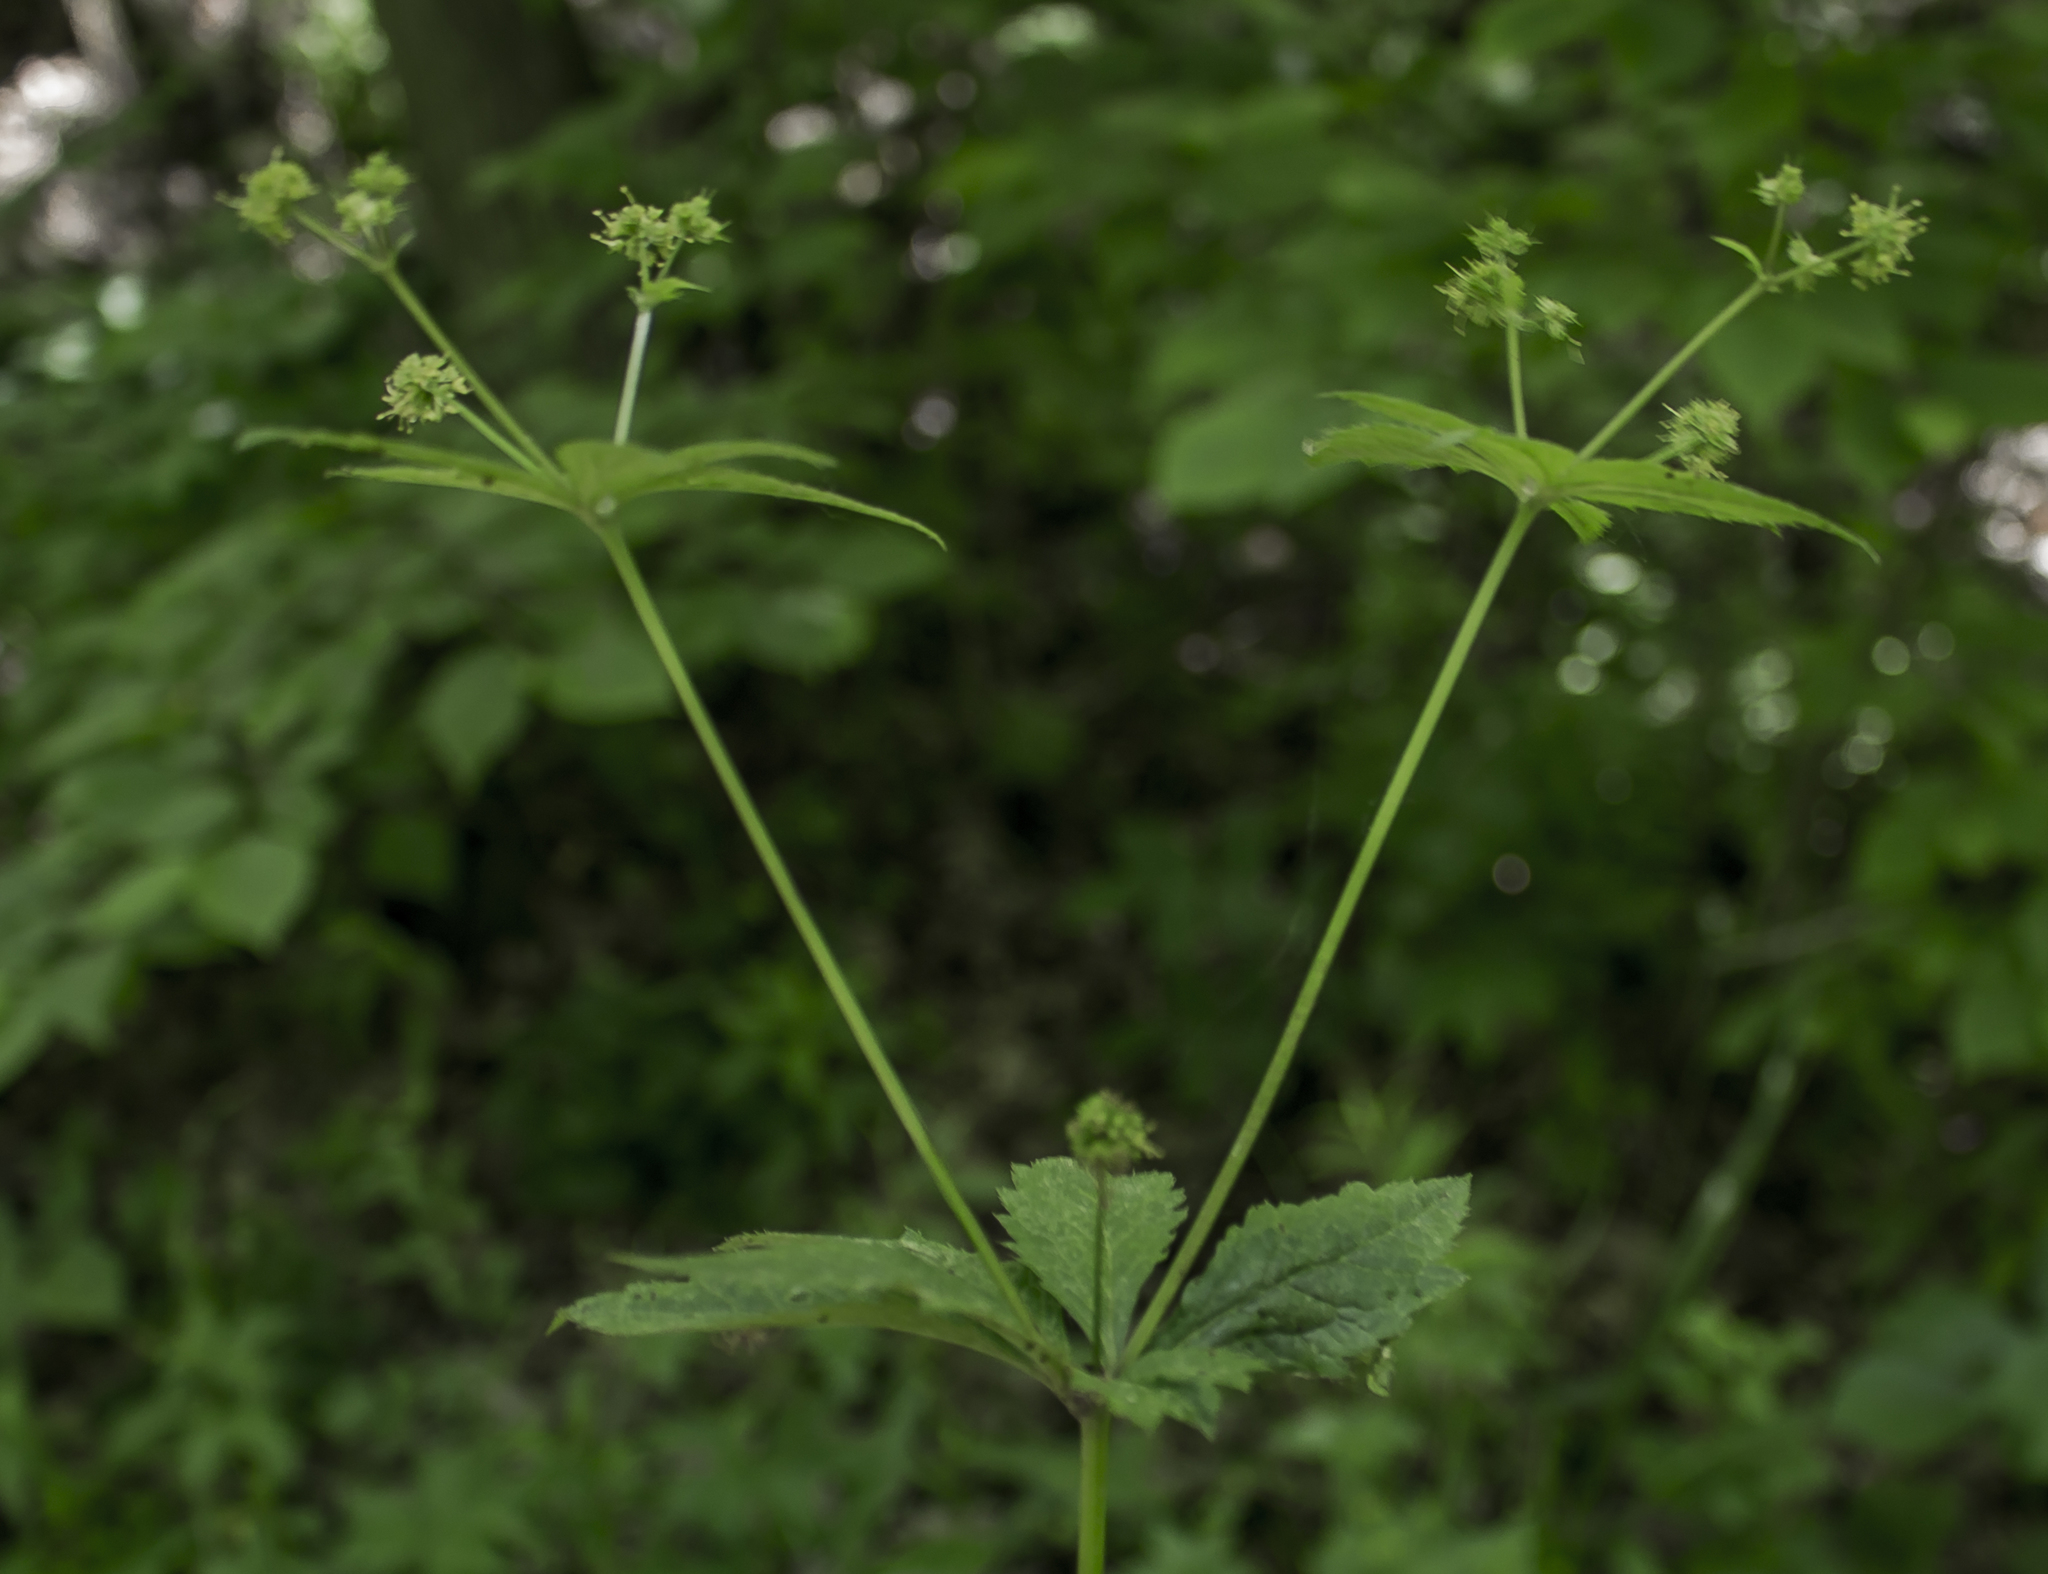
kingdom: Plantae
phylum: Tracheophyta
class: Magnoliopsida
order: Apiales
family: Apiaceae
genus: Sanicula
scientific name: Sanicula odorata
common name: Cluster sanicle
